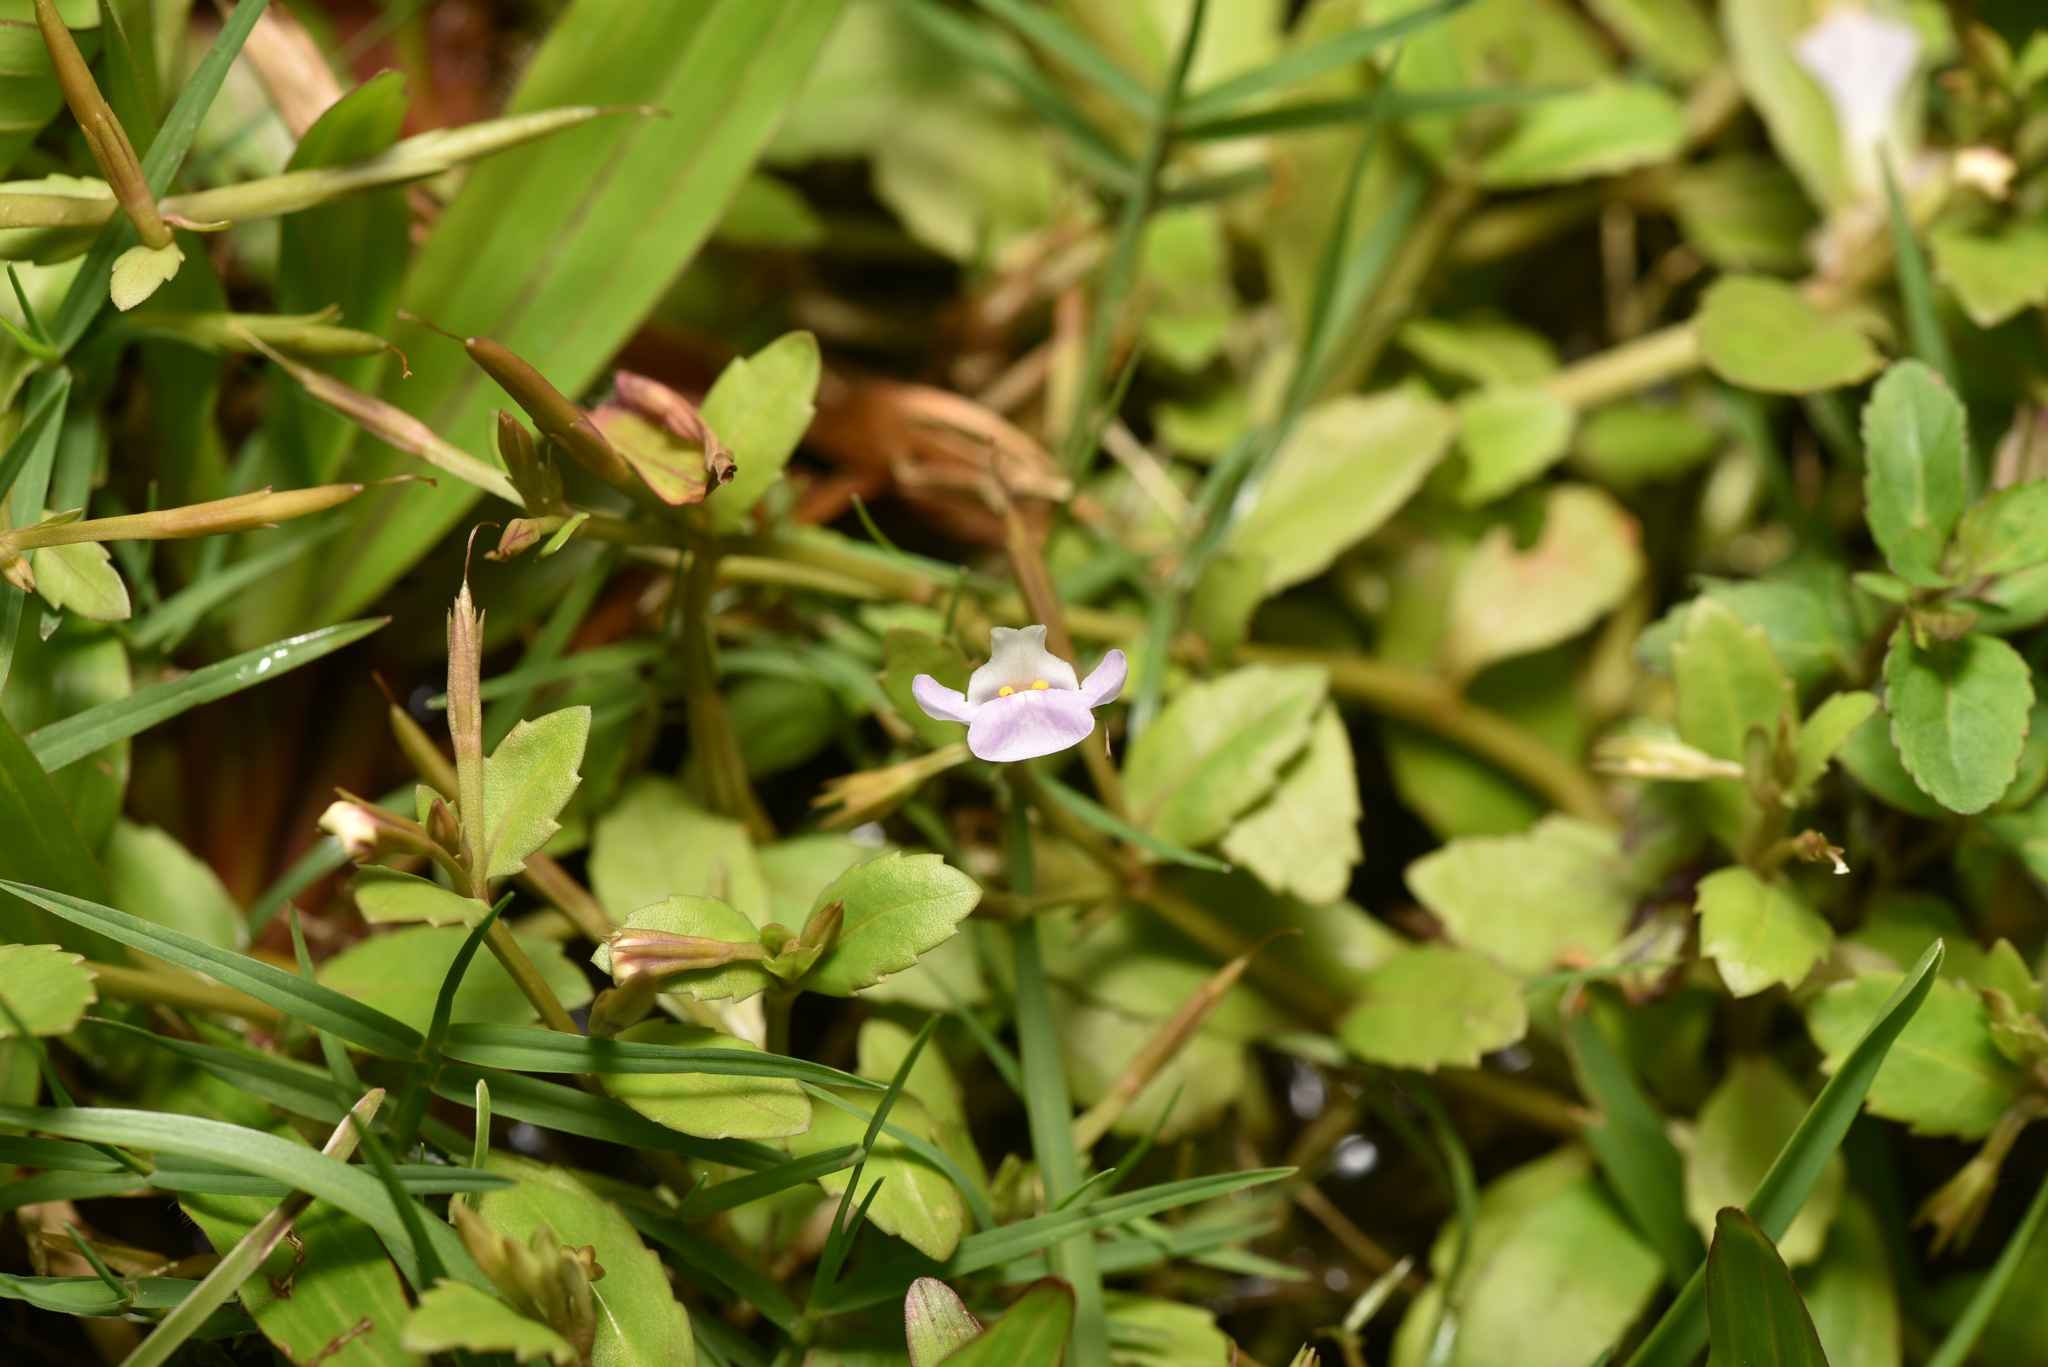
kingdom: Plantae
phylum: Tracheophyta
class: Magnoliopsida
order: Lamiales
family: Linderniaceae
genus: Bonnaya
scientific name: Bonnaya antipoda
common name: Sparrow false pimpernel
